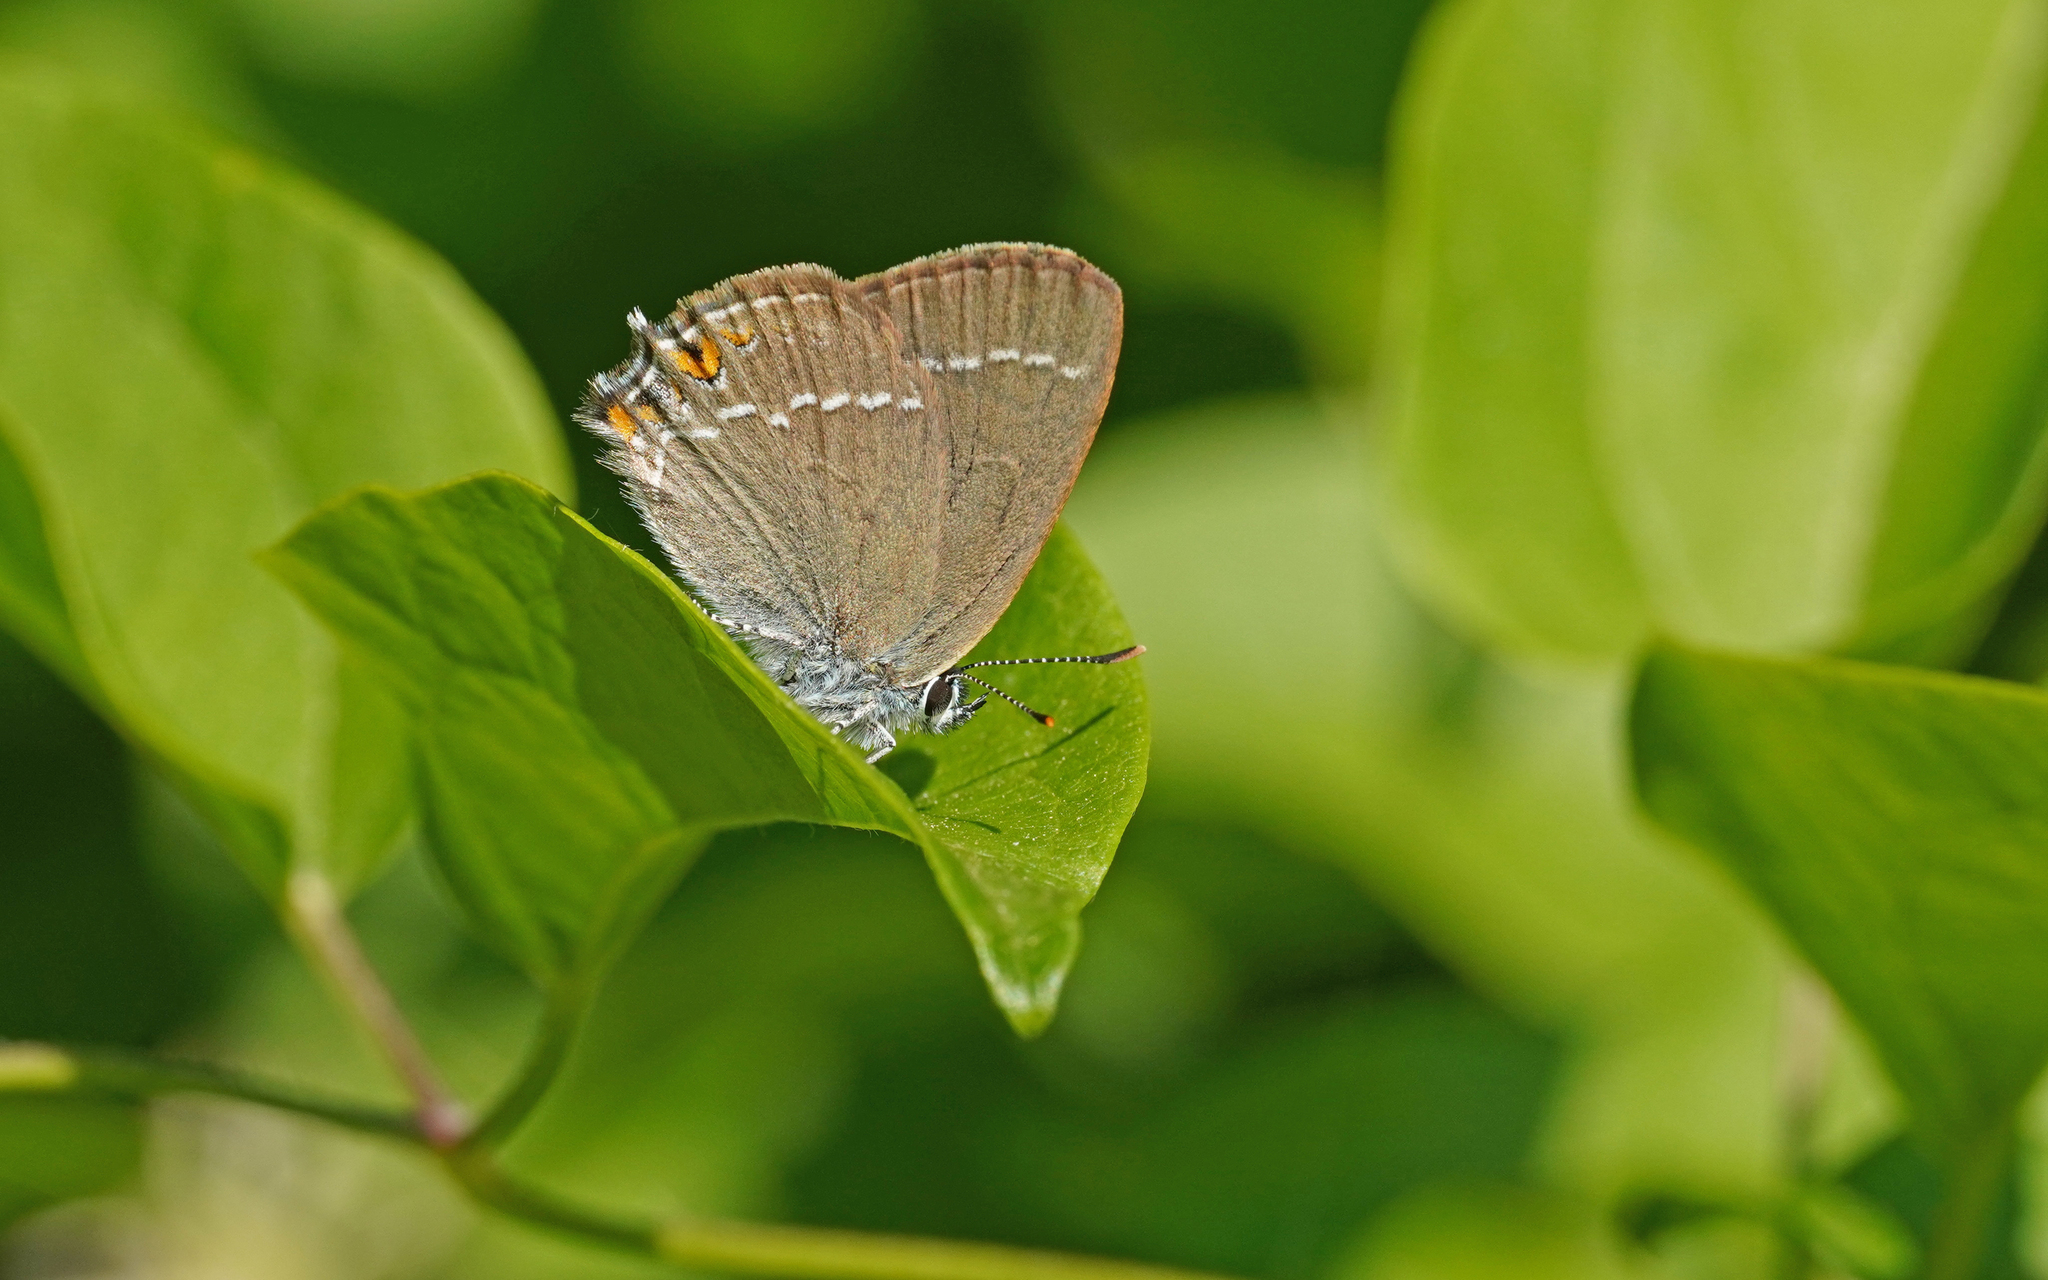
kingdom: Animalia
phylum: Arthropoda
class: Insecta
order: Lepidoptera
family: Lycaenidae
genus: Strymon
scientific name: Strymon acaciae
